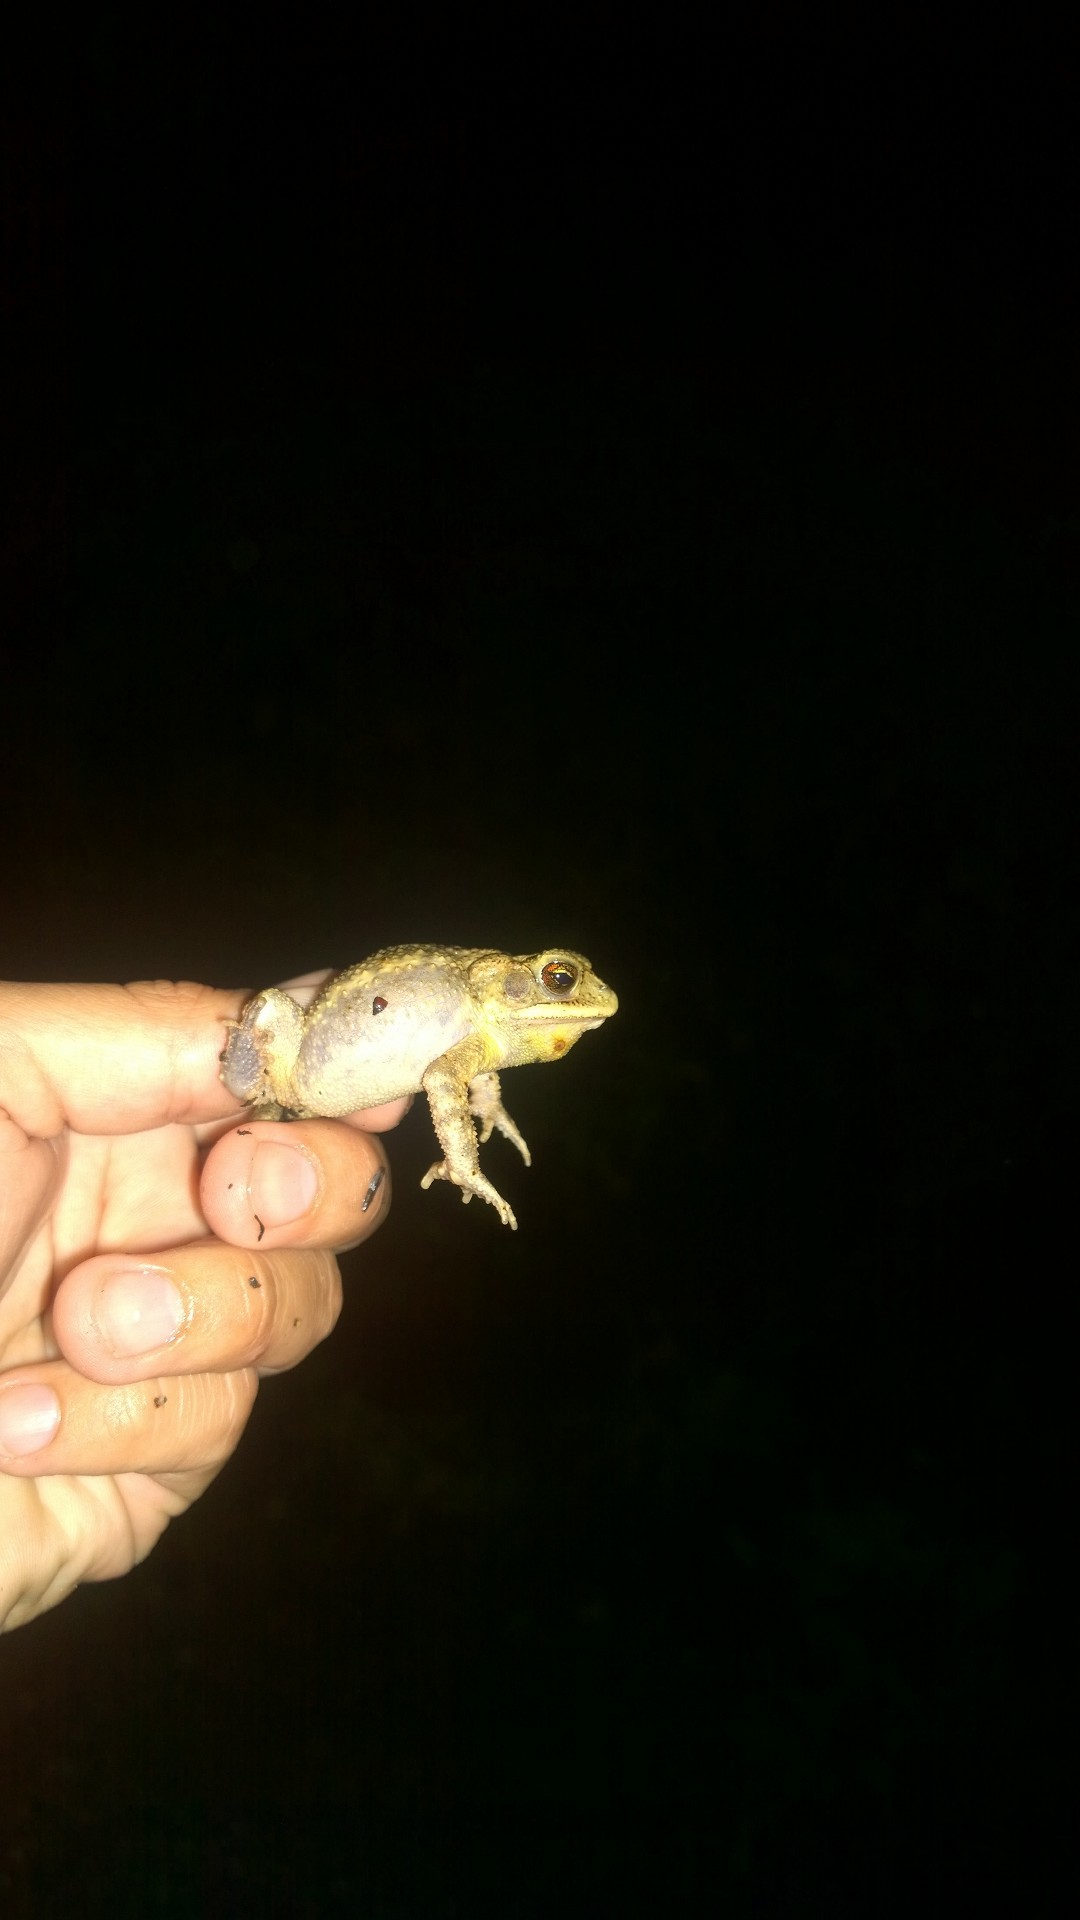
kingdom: Animalia
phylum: Chordata
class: Amphibia
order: Anura
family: Bufonidae
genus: Incilius
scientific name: Incilius nebulifer
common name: Gulf coast toad
